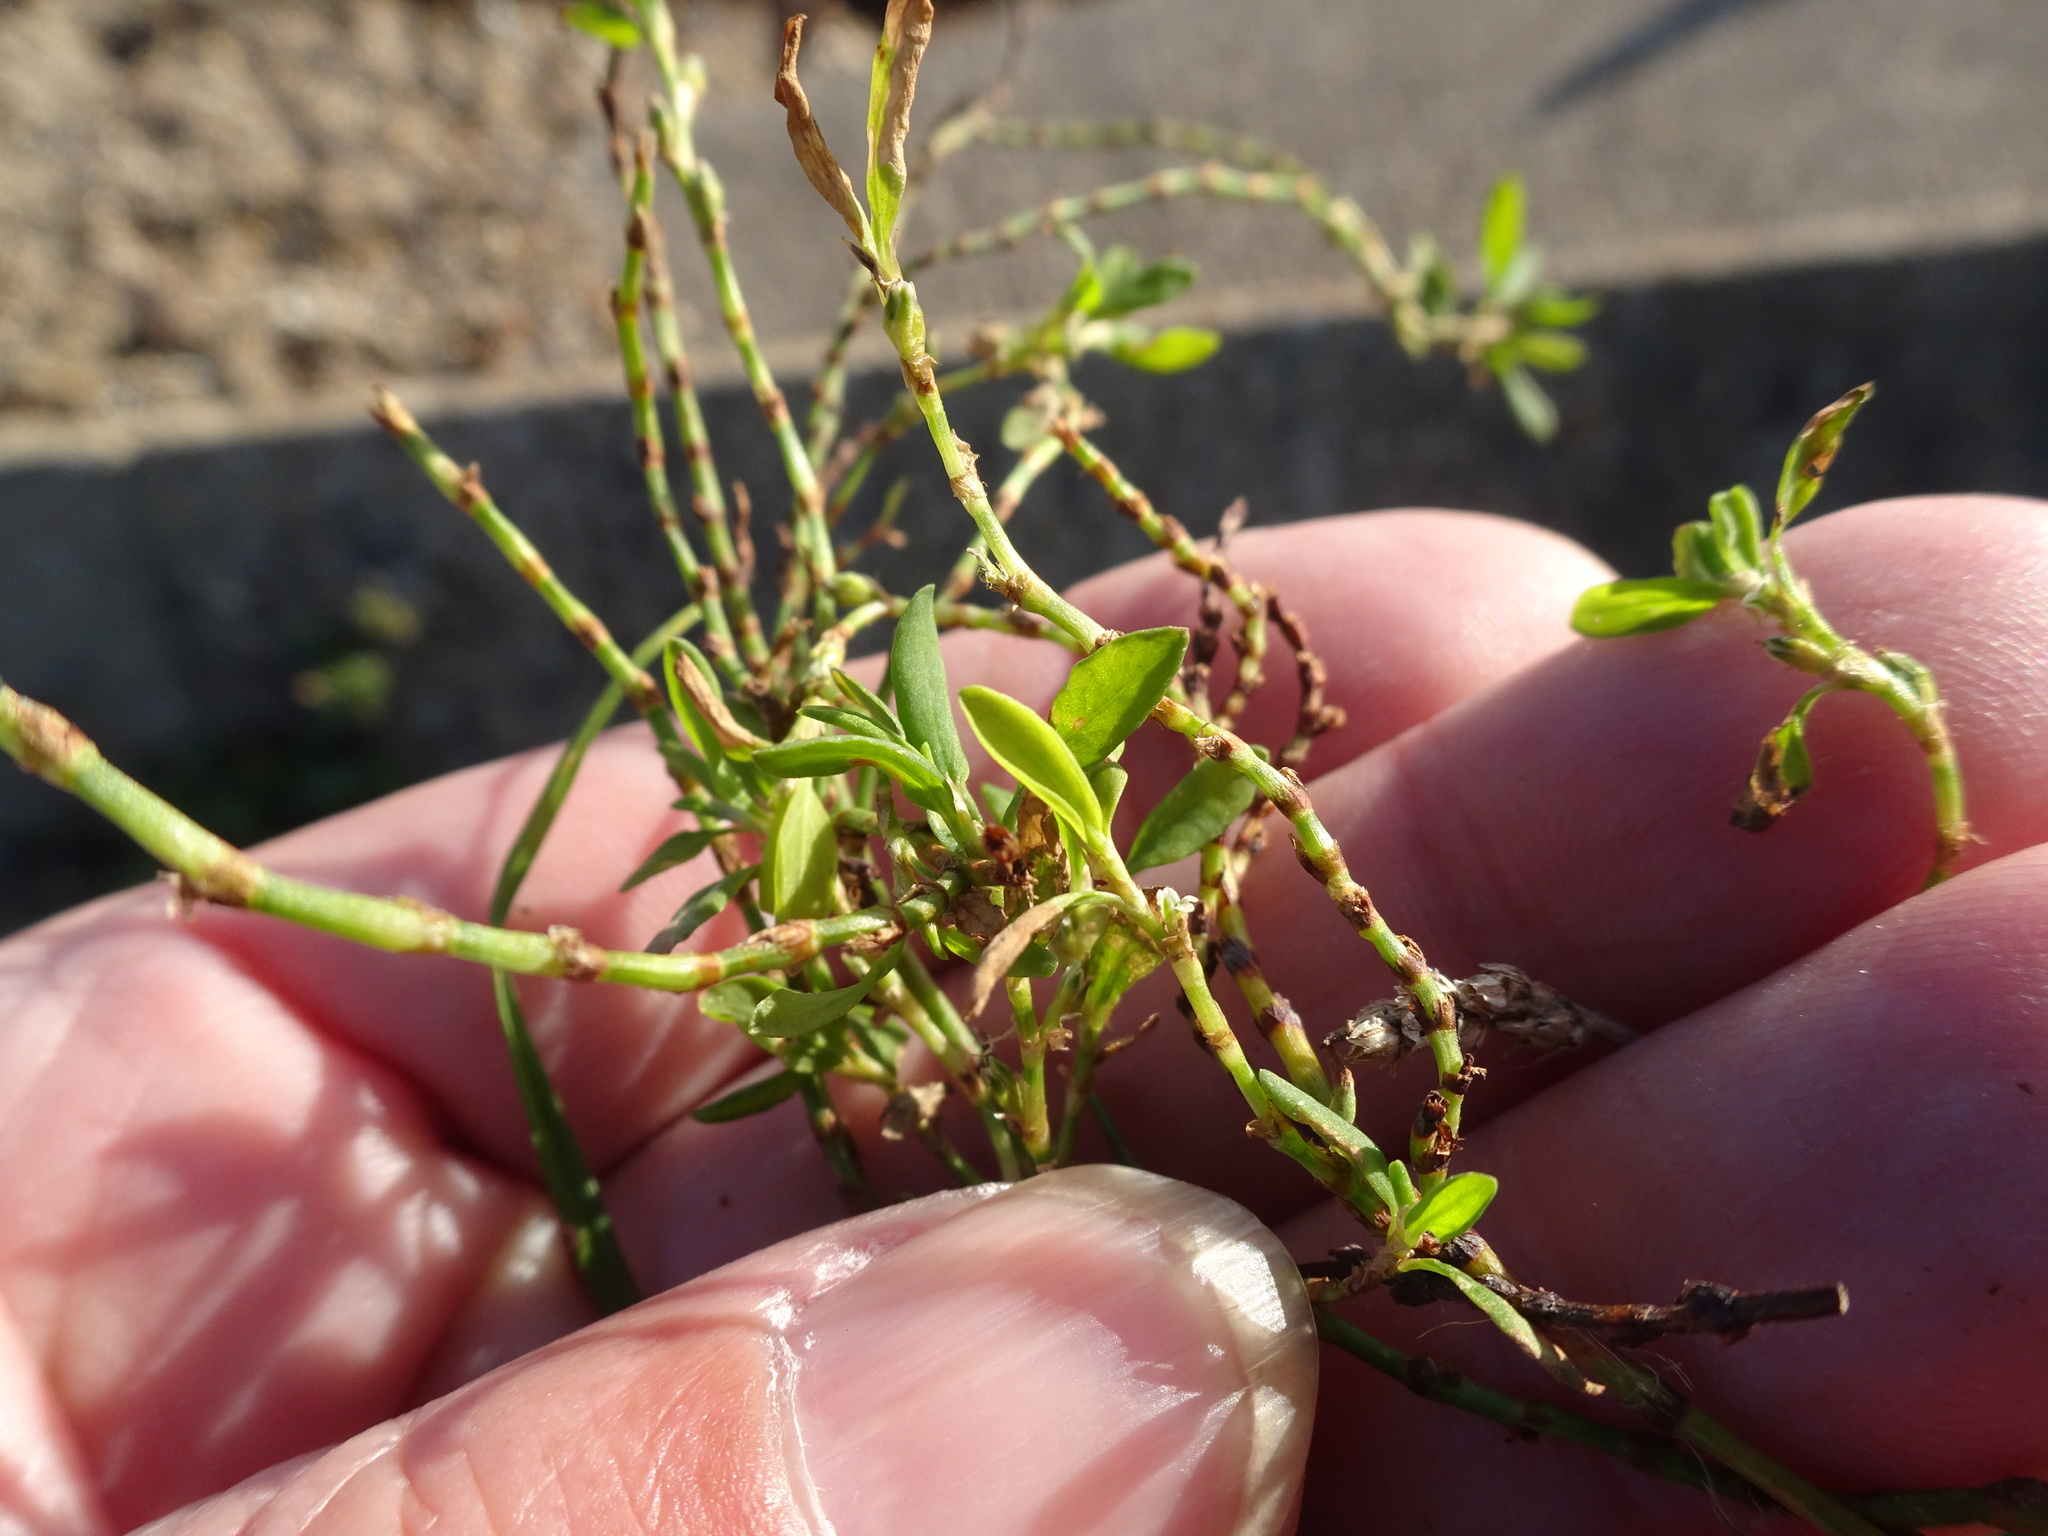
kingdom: Plantae
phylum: Tracheophyta
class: Magnoliopsida
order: Caryophyllales
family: Polygonaceae
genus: Polygonum
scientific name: Polygonum aviculare
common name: Prostrate knotweed
